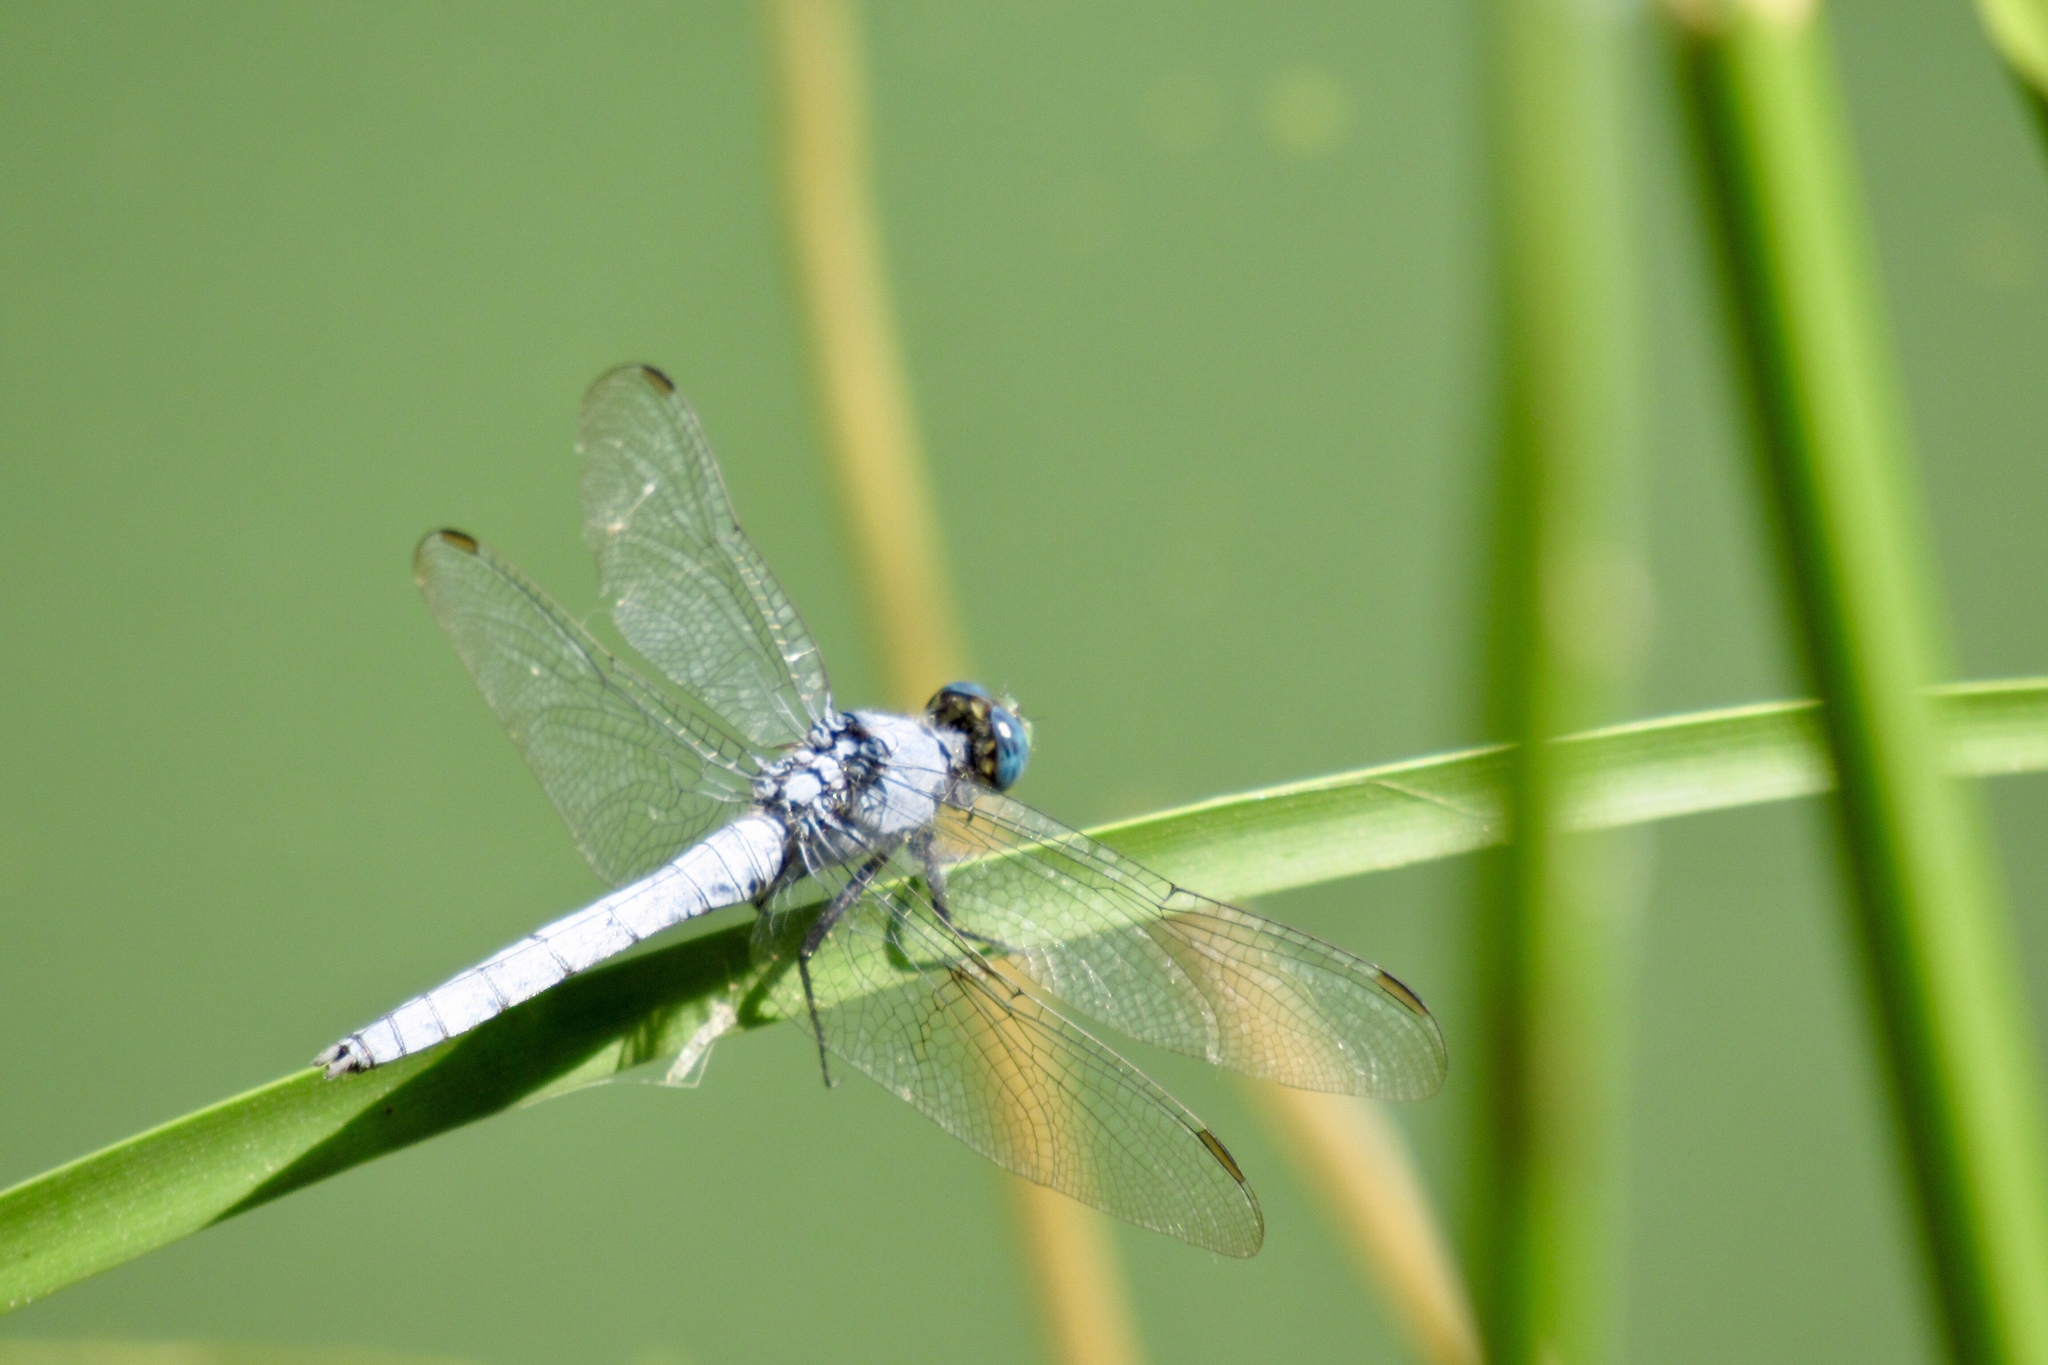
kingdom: Animalia
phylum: Arthropoda
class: Insecta
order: Odonata
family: Libellulidae
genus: Erythemis
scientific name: Erythemis collocata
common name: Western pondhawk
